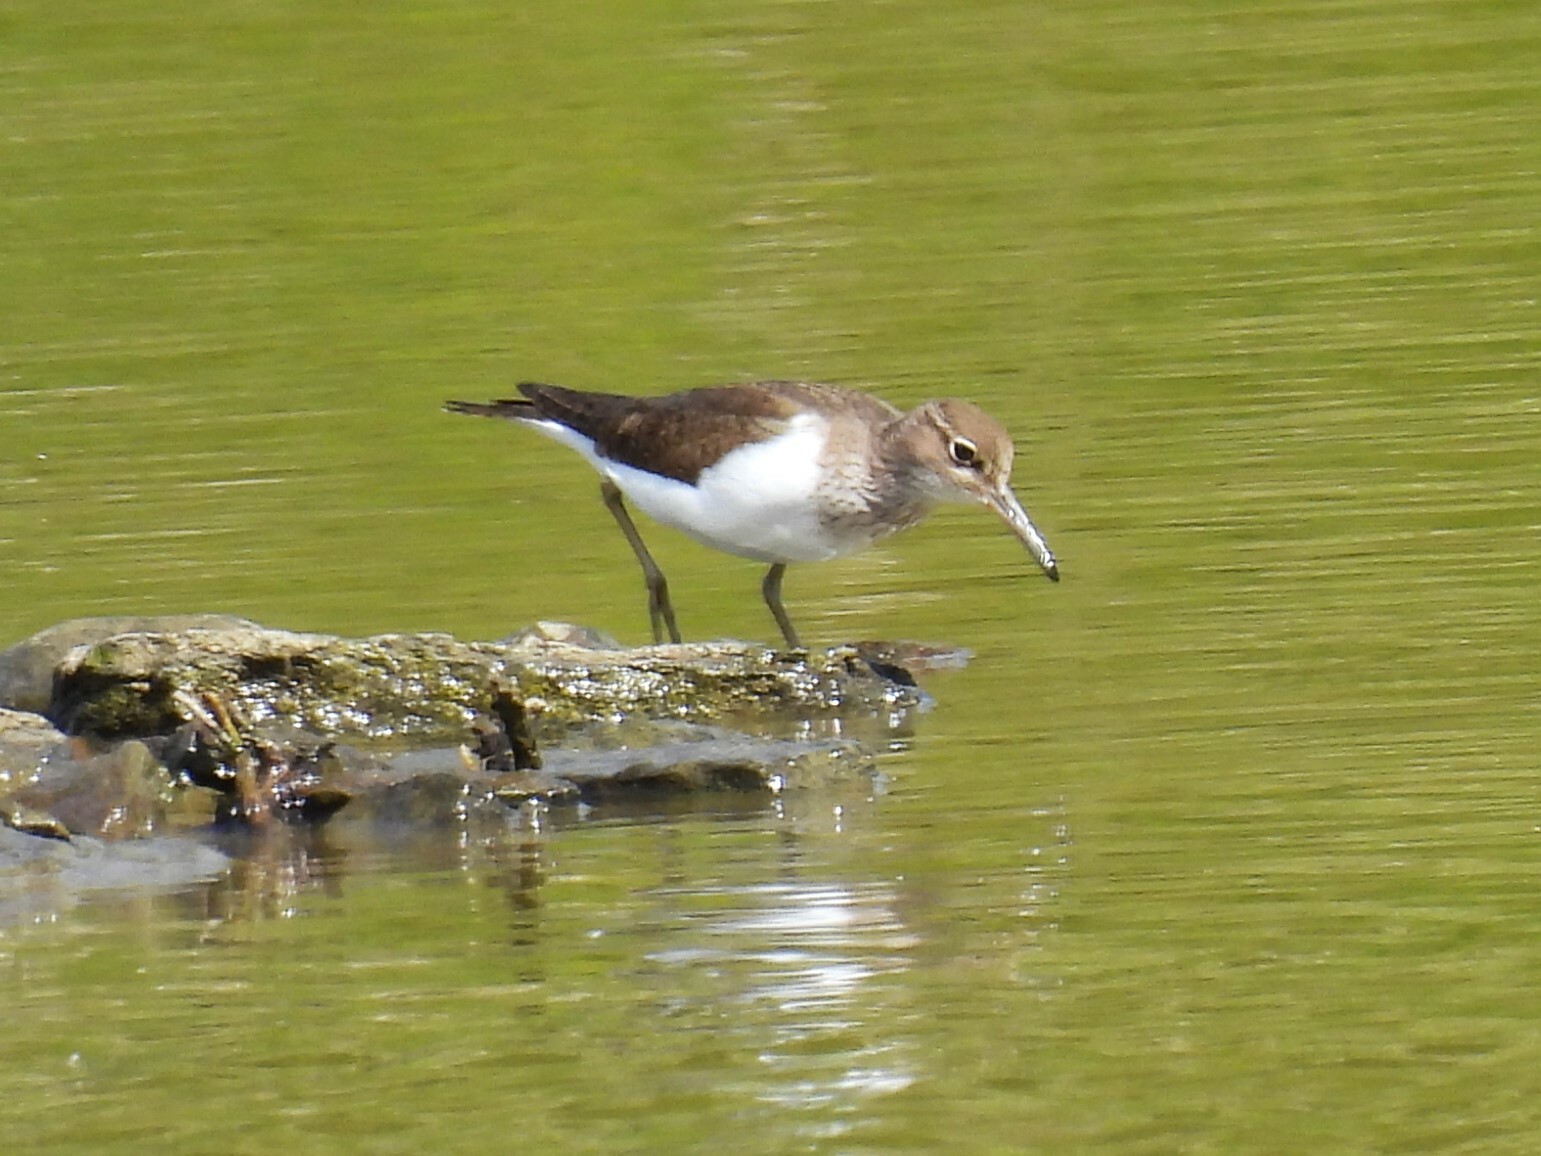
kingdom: Animalia
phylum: Chordata
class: Aves
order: Charadriiformes
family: Scolopacidae
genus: Actitis
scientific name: Actitis hypoleucos
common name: Common sandpiper
